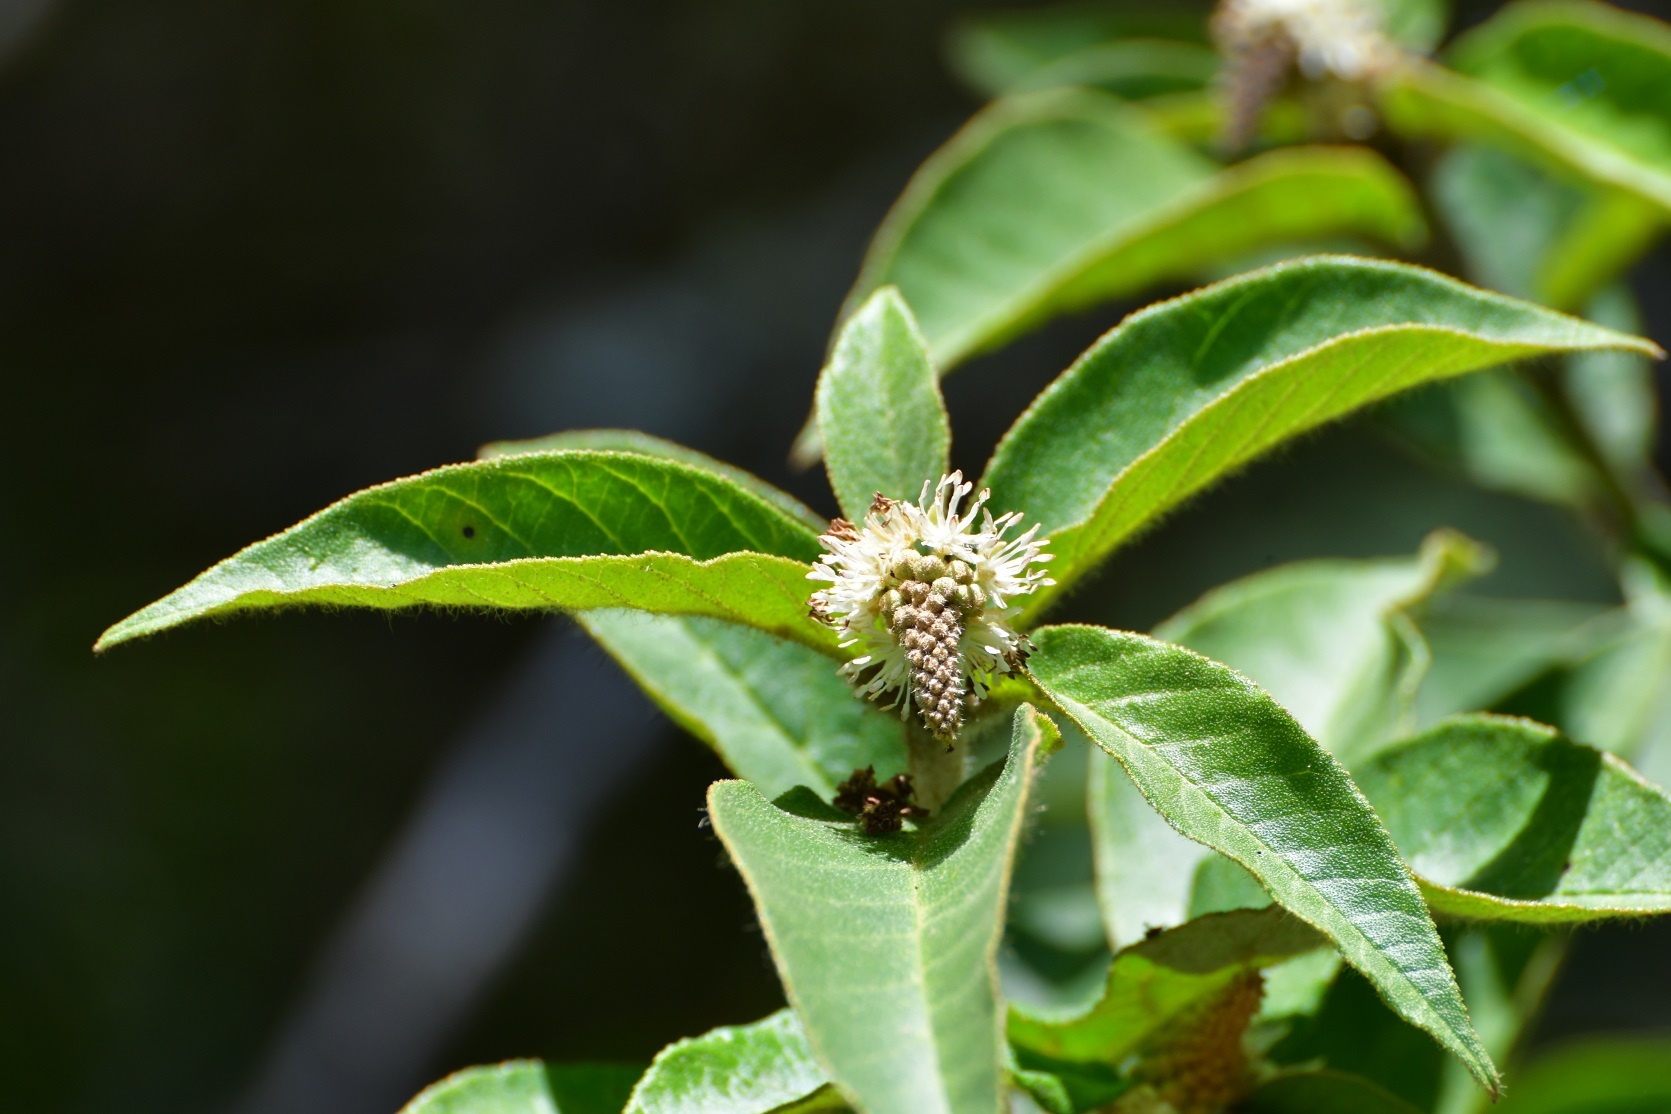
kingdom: Plantae
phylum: Tracheophyta
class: Magnoliopsida
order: Malpighiales
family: Euphorbiaceae
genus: Croton
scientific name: Croton adspersus
